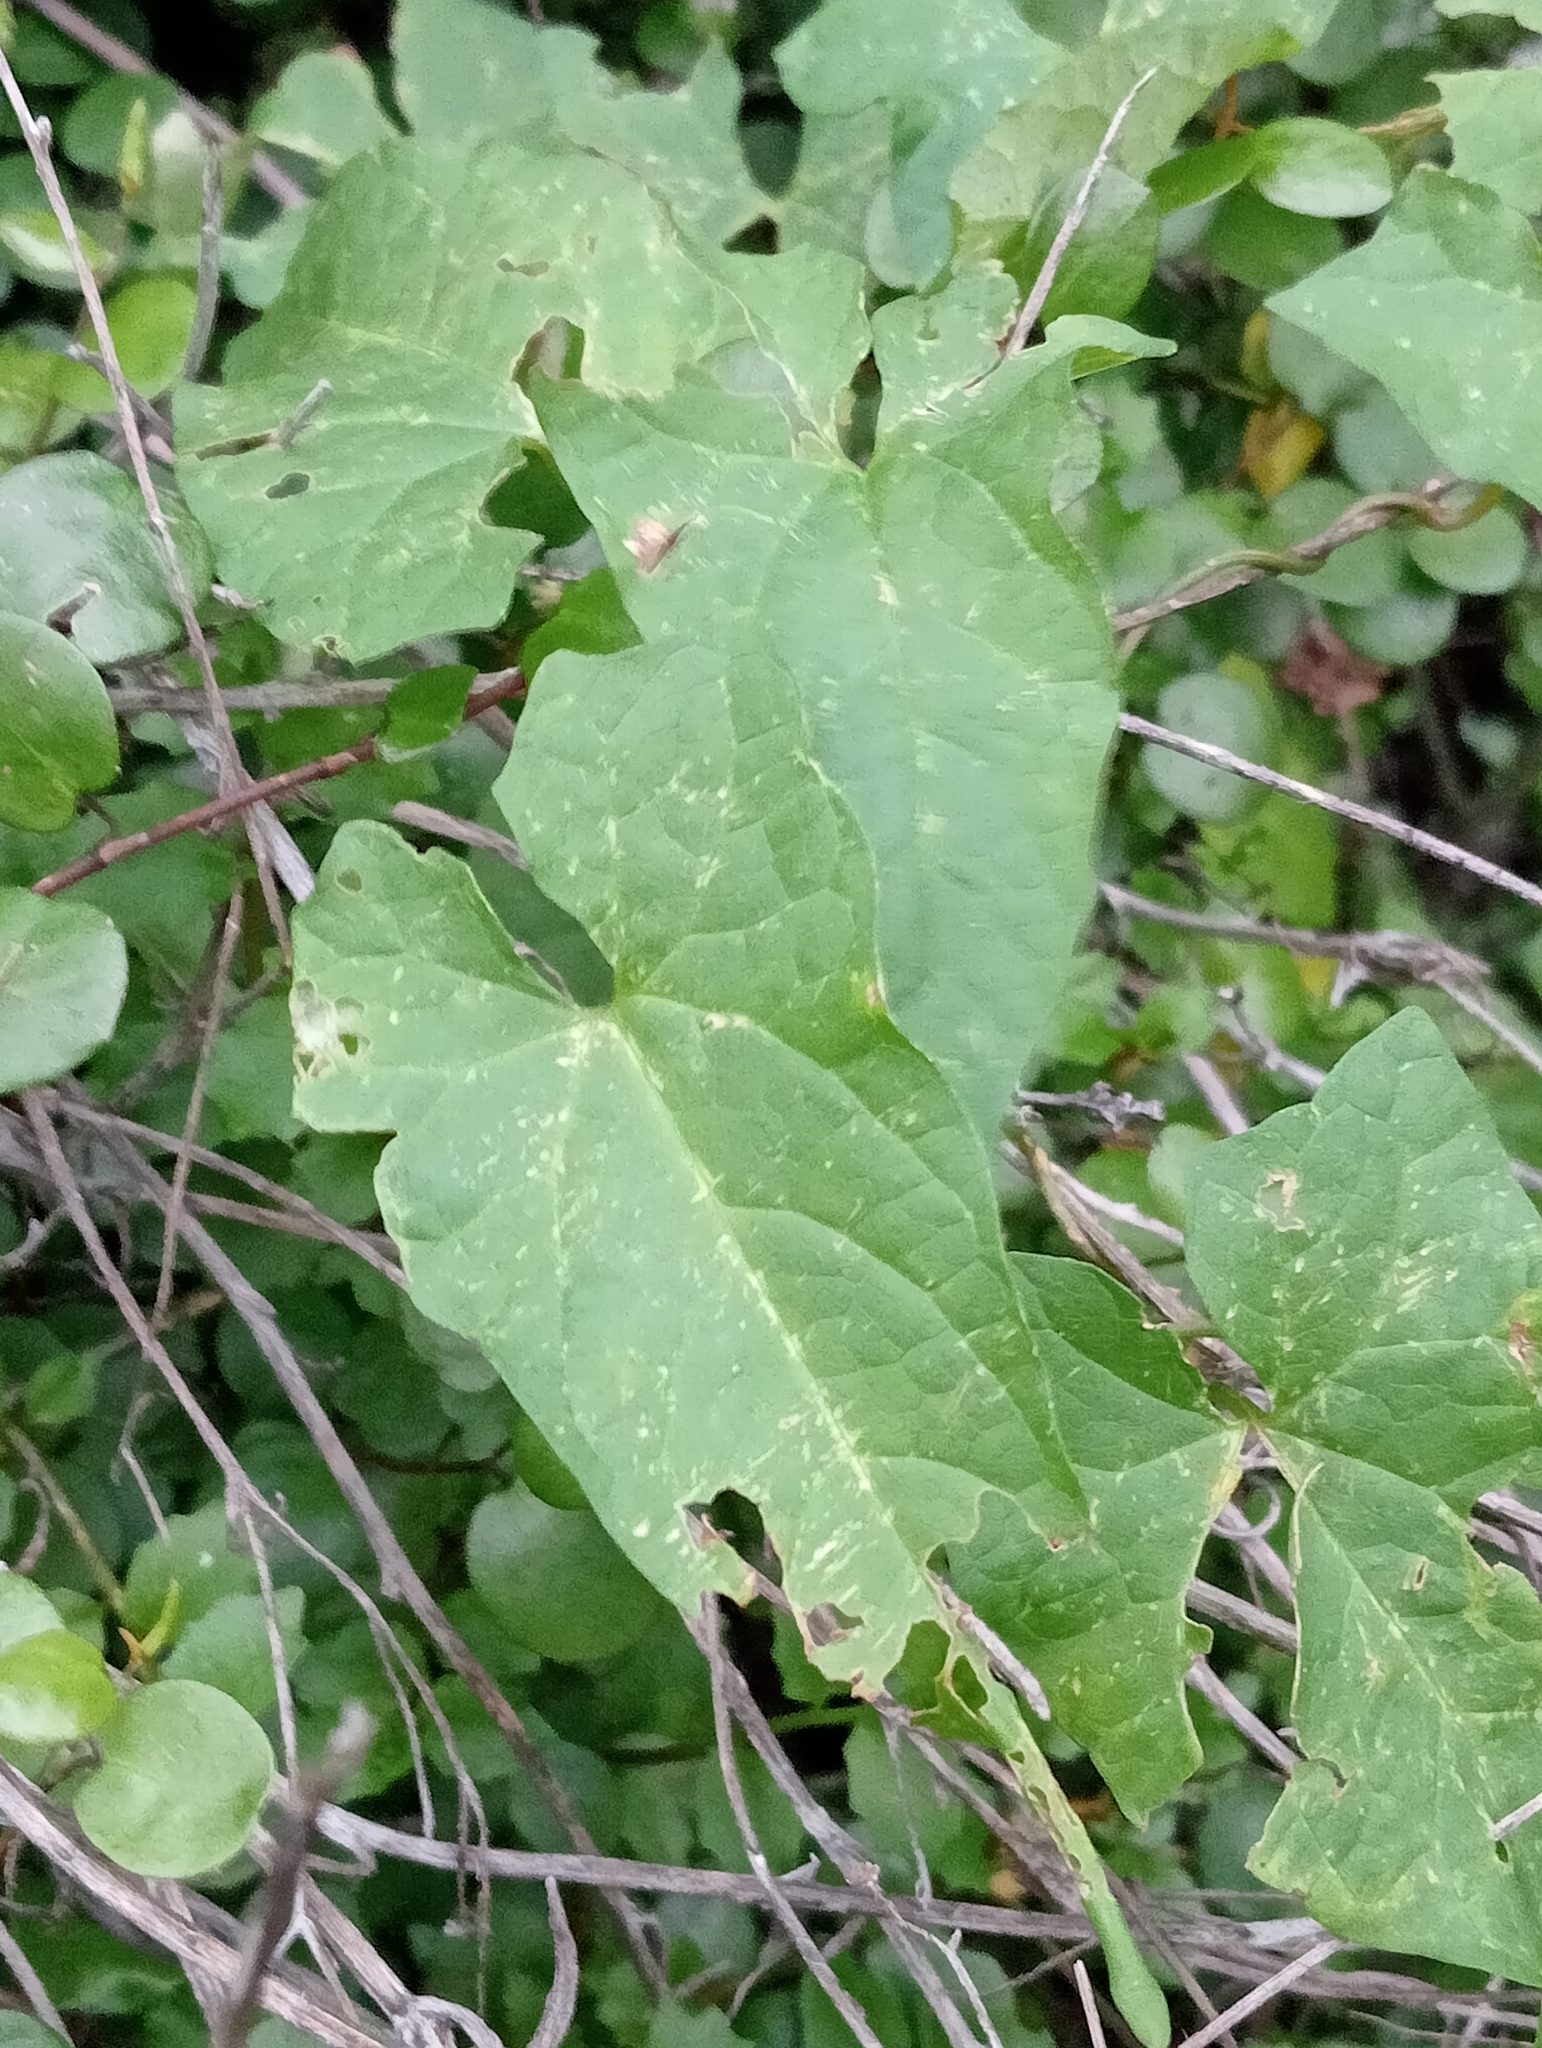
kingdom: Plantae
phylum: Tracheophyta
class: Magnoliopsida
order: Solanales
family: Convolvulaceae
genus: Calystegia
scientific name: Calystegia silvatica
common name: Large bindweed
